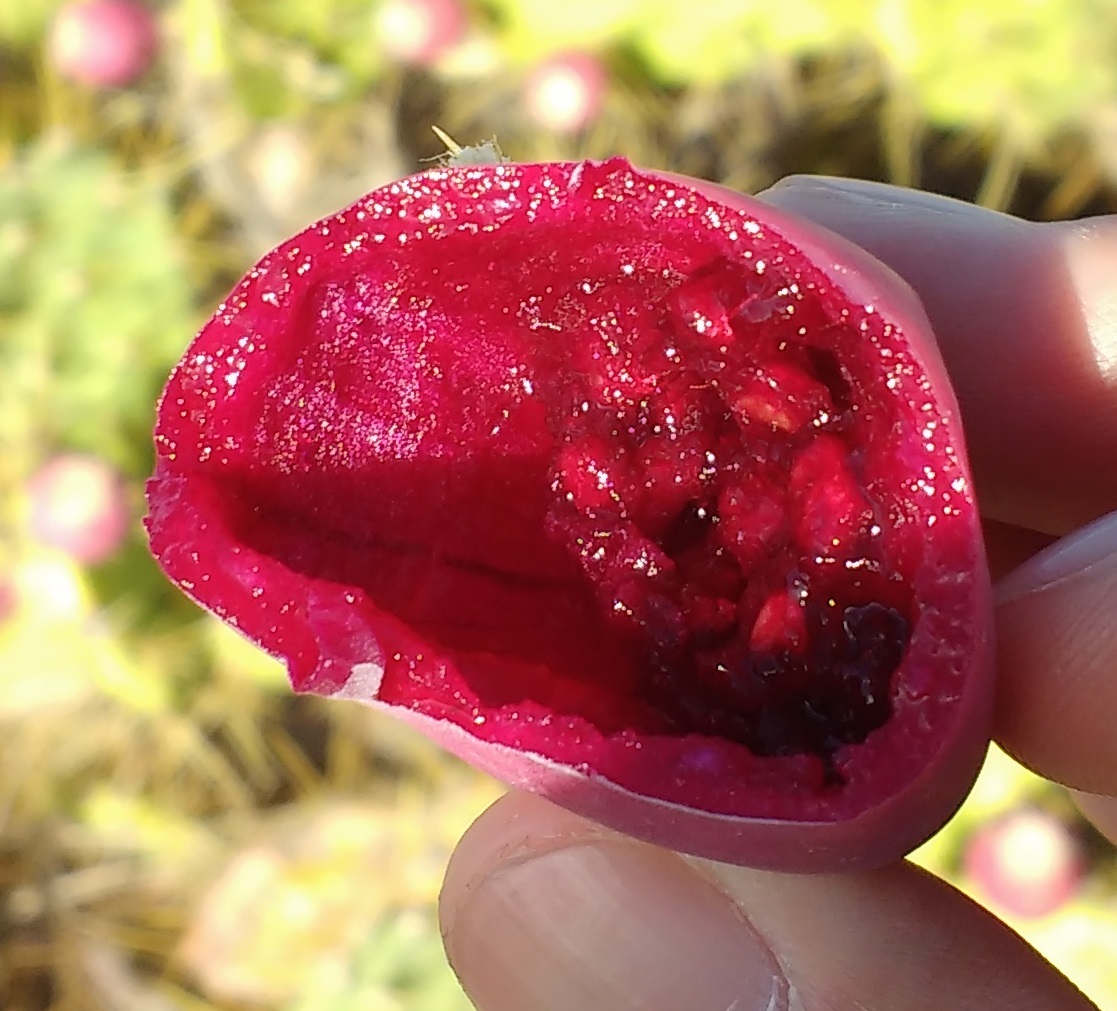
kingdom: Plantae
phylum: Tracheophyta
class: Magnoliopsida
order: Caryophyllales
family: Cactaceae
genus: Opuntia
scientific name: Opuntia stricta
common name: Erect pricklypear
